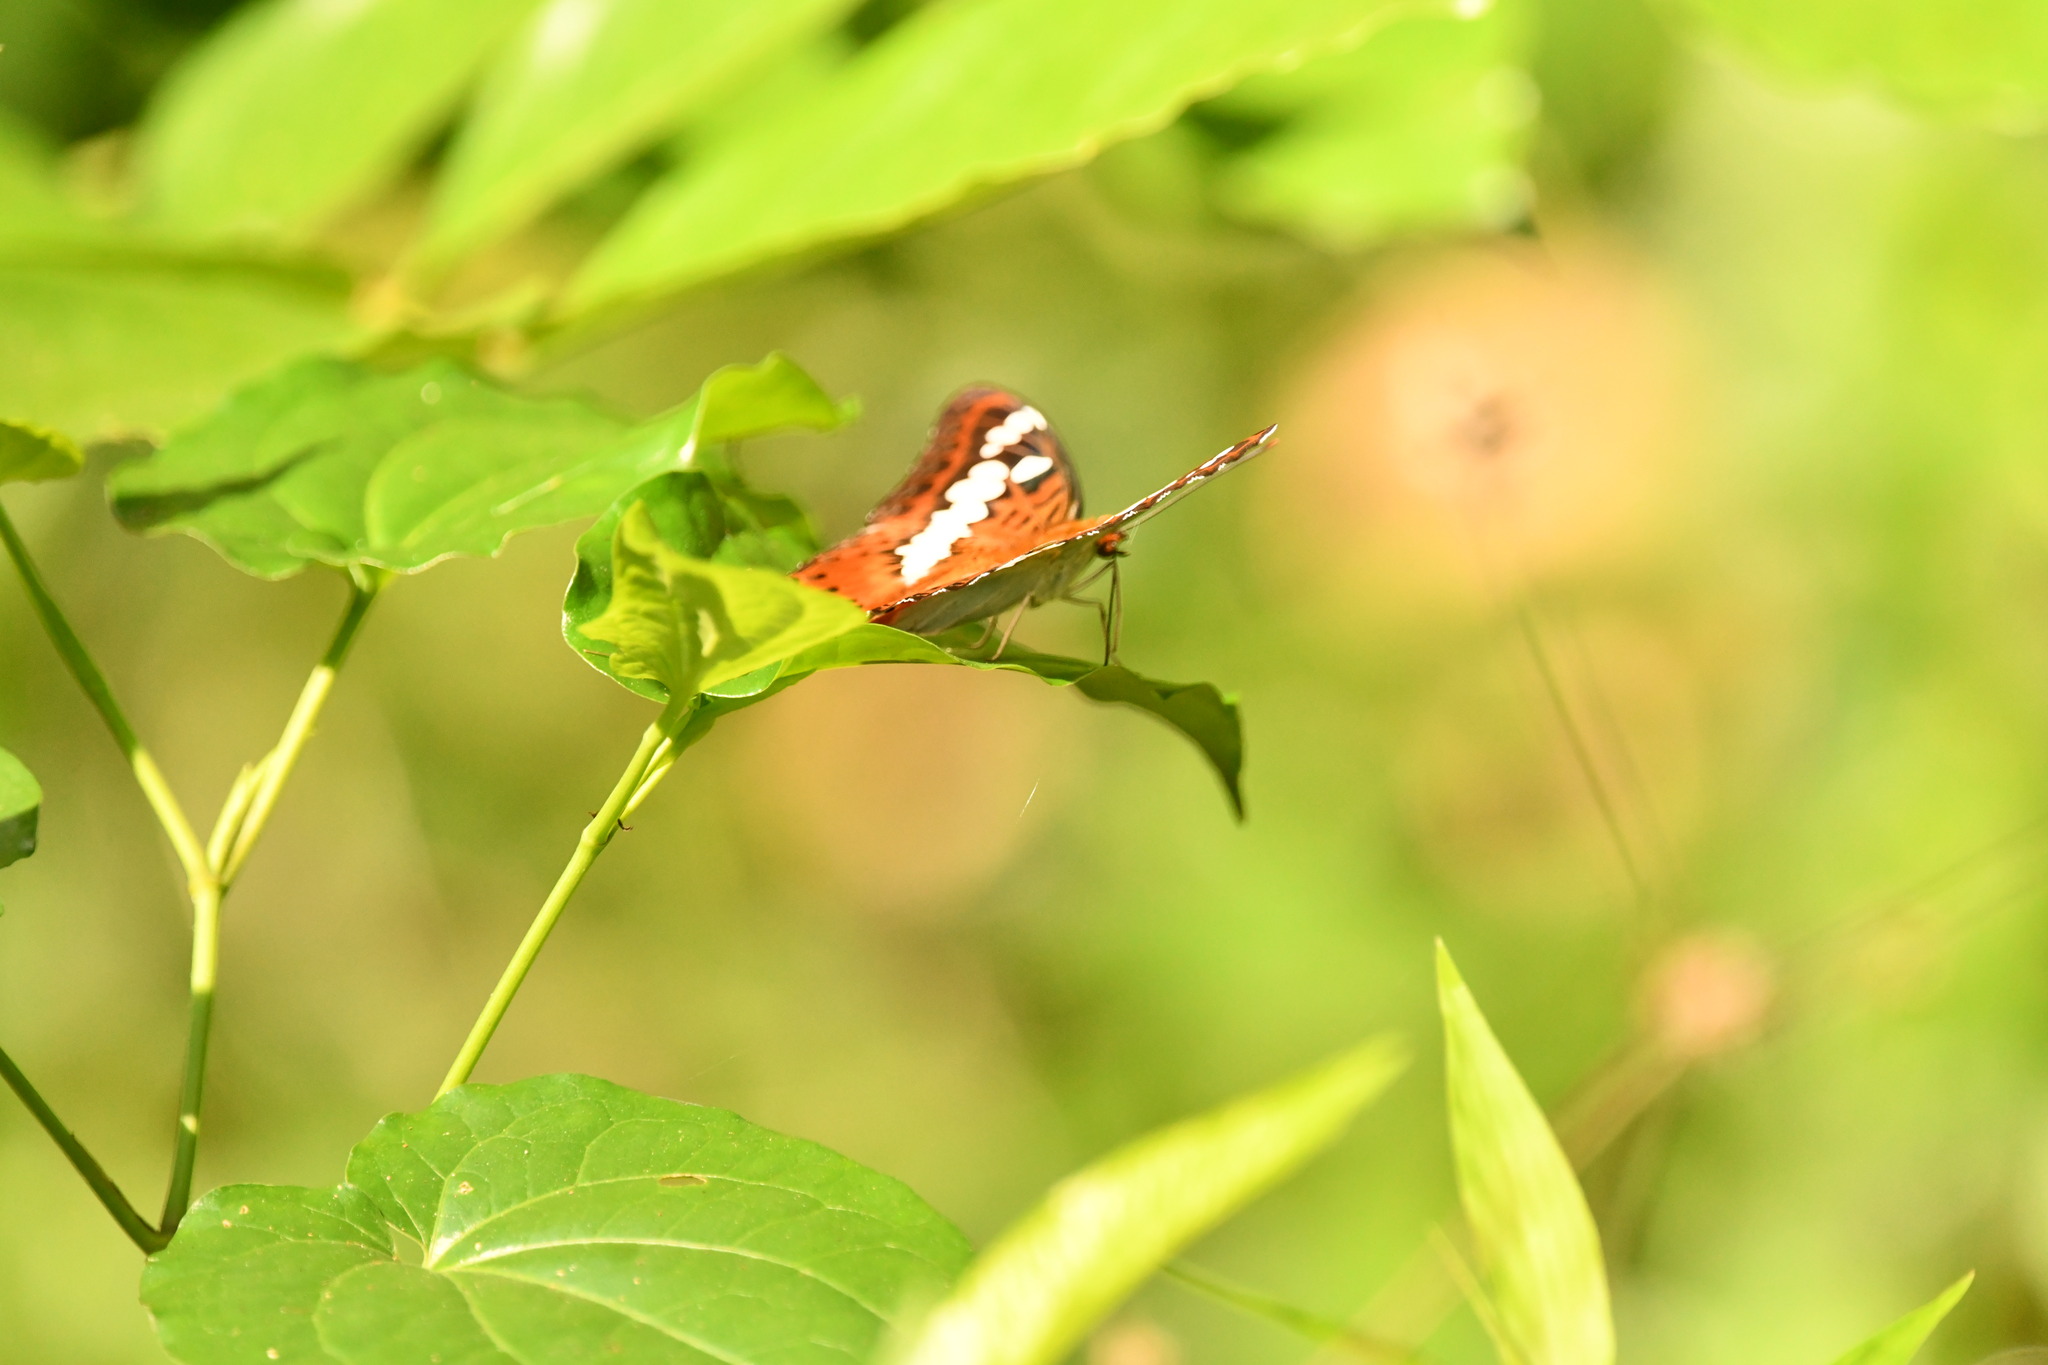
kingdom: Animalia
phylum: Arthropoda
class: Insecta
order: Lepidoptera
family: Nymphalidae
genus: Limenitis
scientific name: Limenitis Moduza procris
